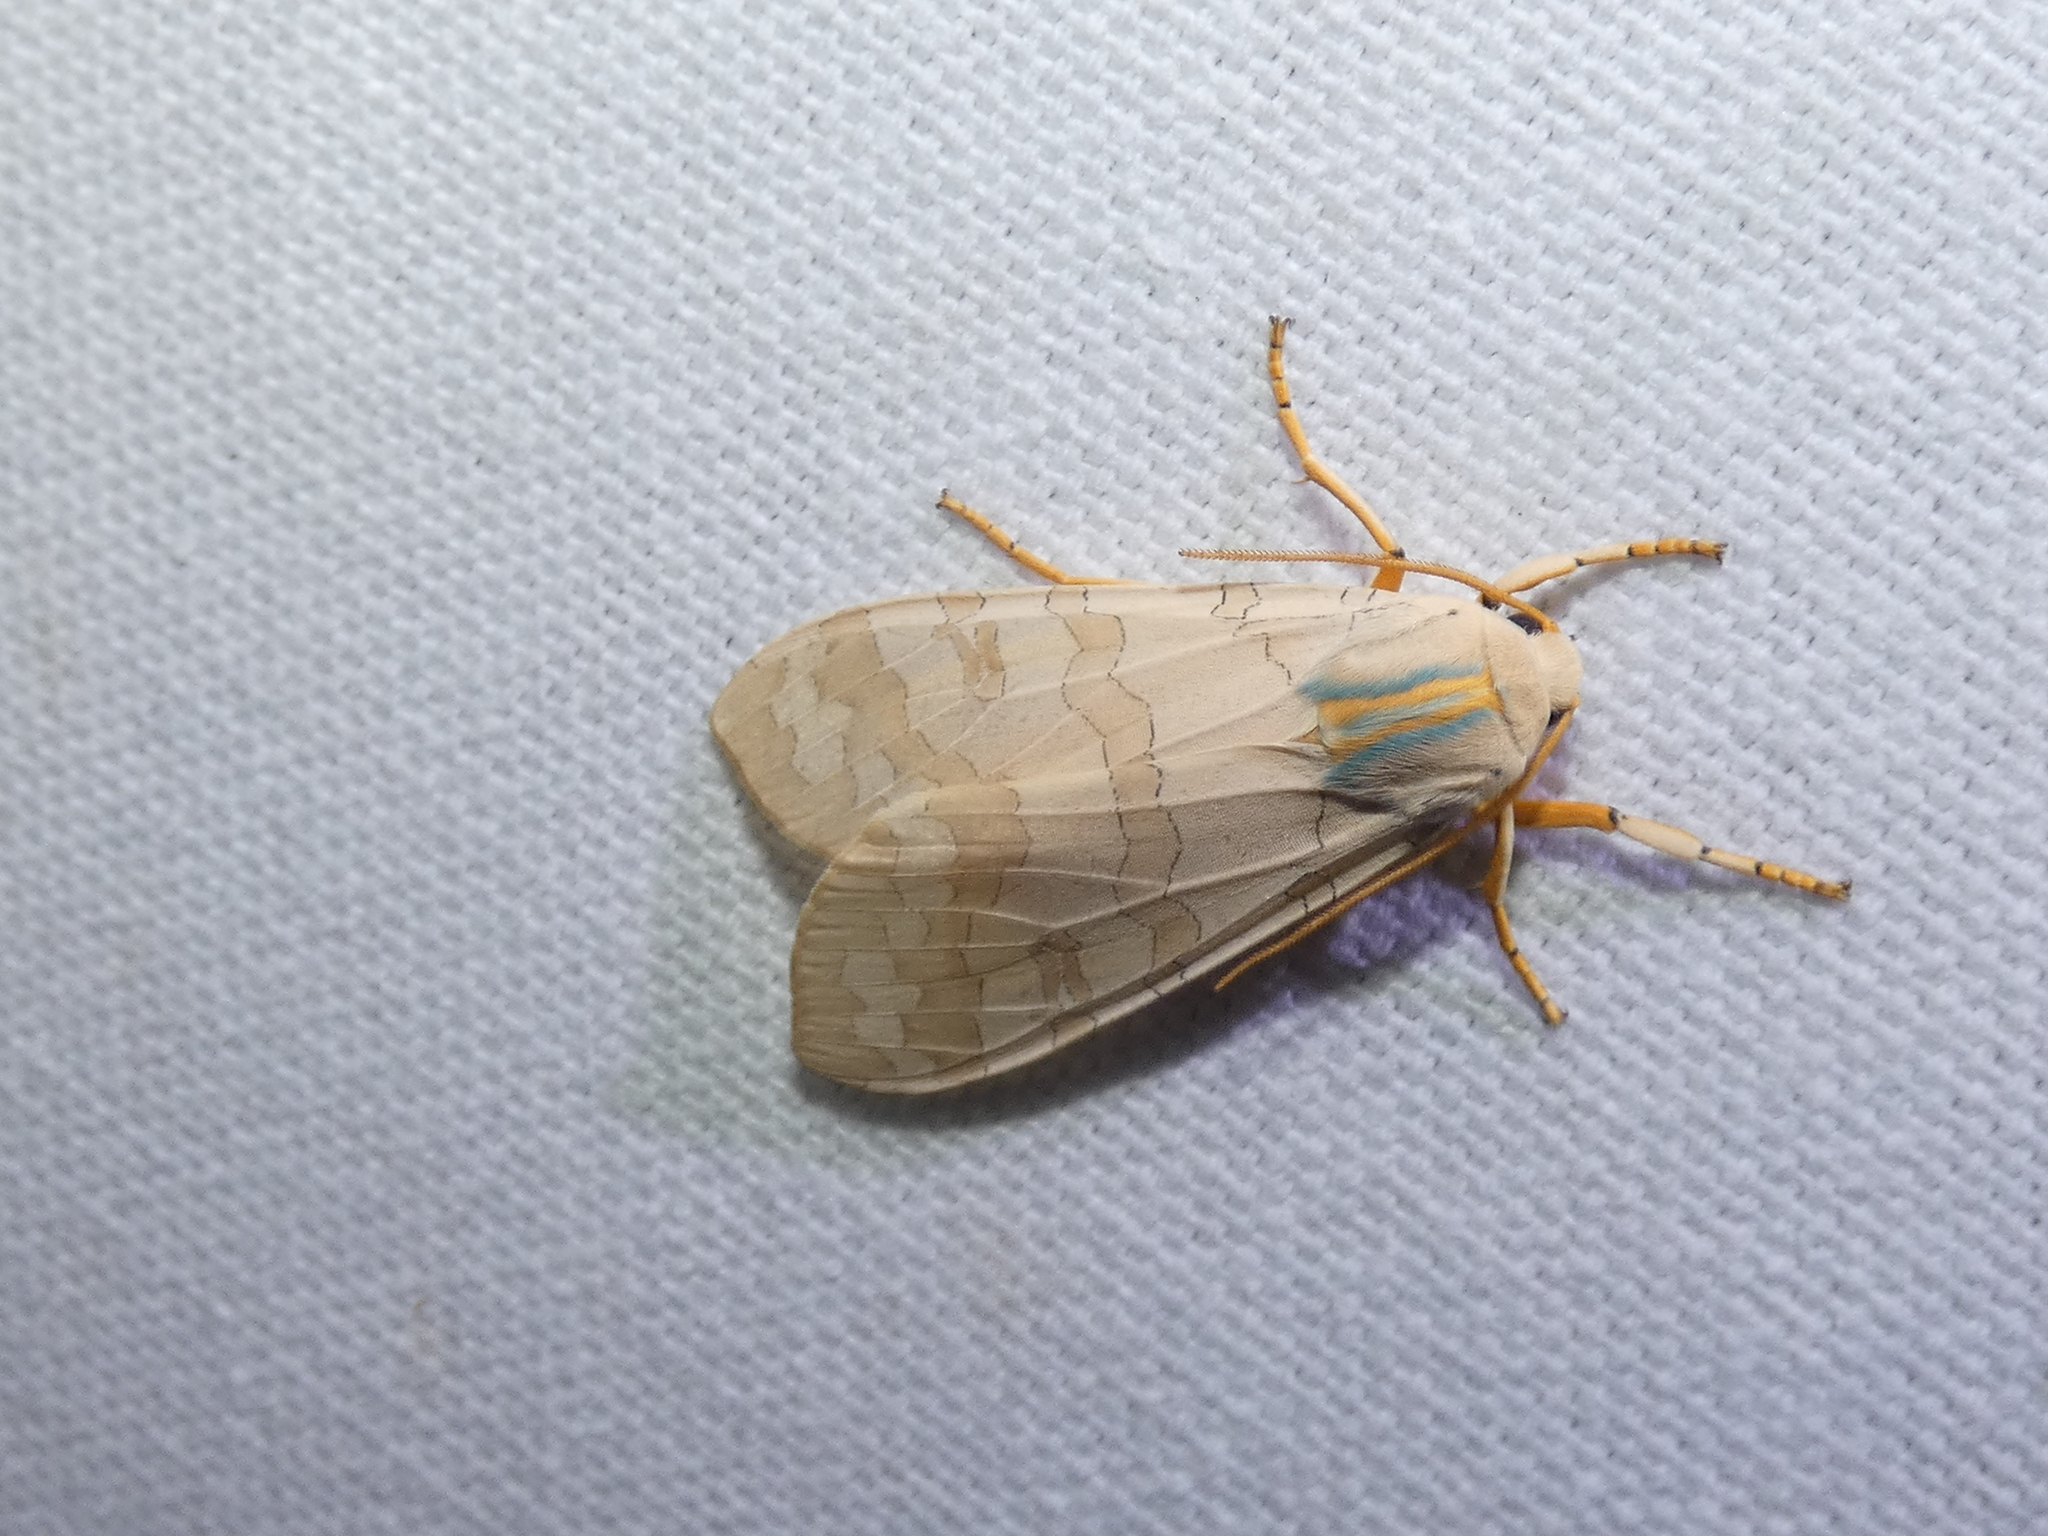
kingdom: Animalia
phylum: Arthropoda
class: Insecta
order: Lepidoptera
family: Erebidae
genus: Halysidota
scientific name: Halysidota
